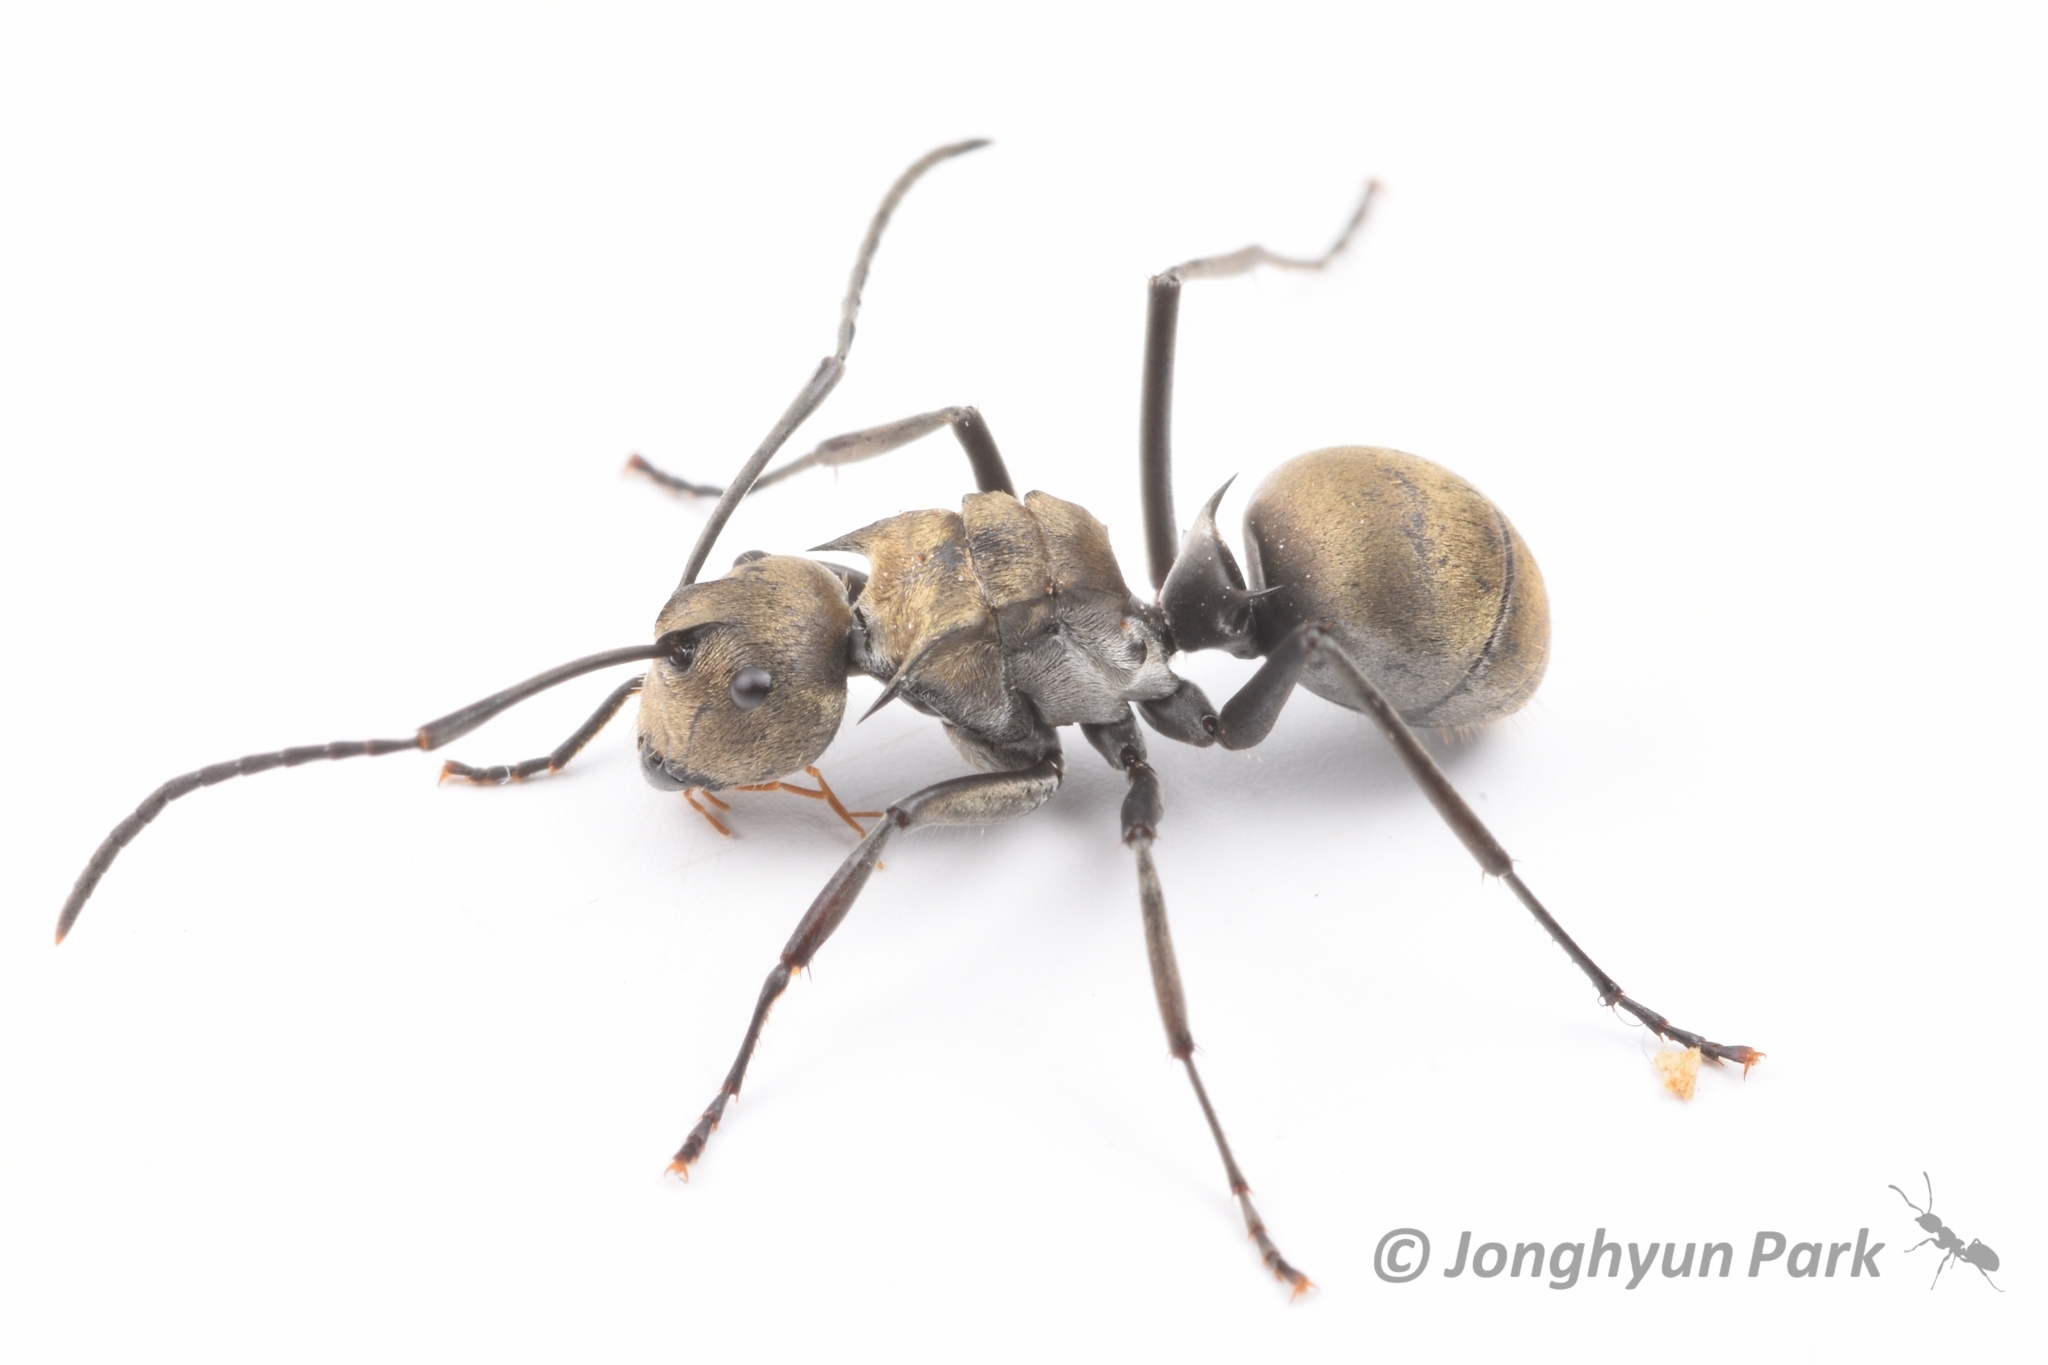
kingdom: Animalia
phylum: Arthropoda
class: Insecta
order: Hymenoptera
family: Formicidae
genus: Polyrhachis
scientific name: Polyrhachis foreli
